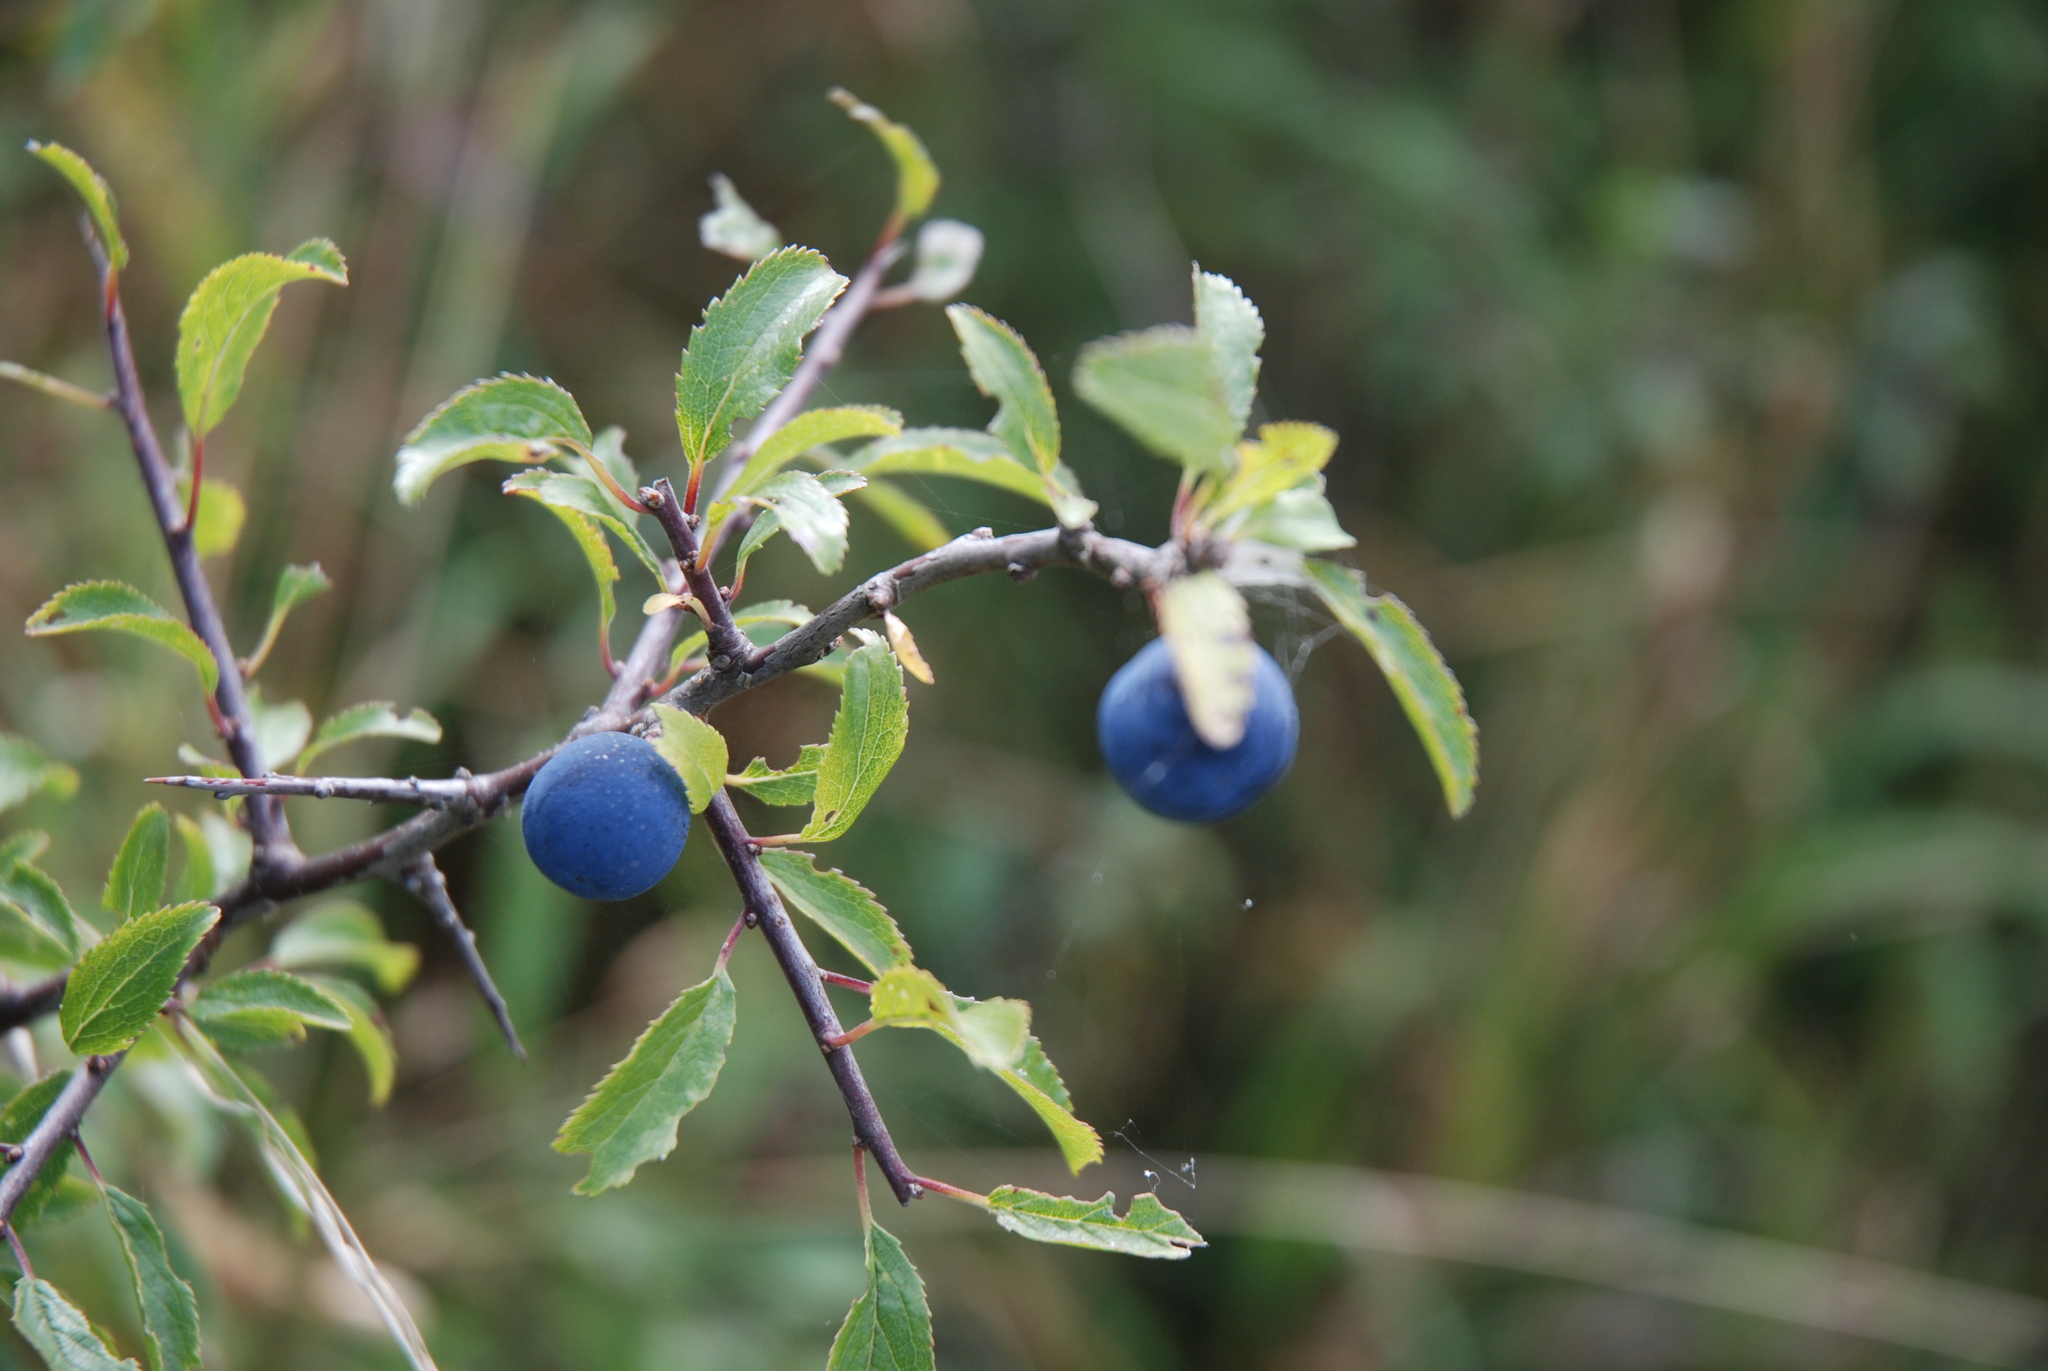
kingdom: Plantae
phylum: Tracheophyta
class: Magnoliopsida
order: Rosales
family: Rosaceae
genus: Prunus
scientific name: Prunus spinosa
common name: Blackthorn
